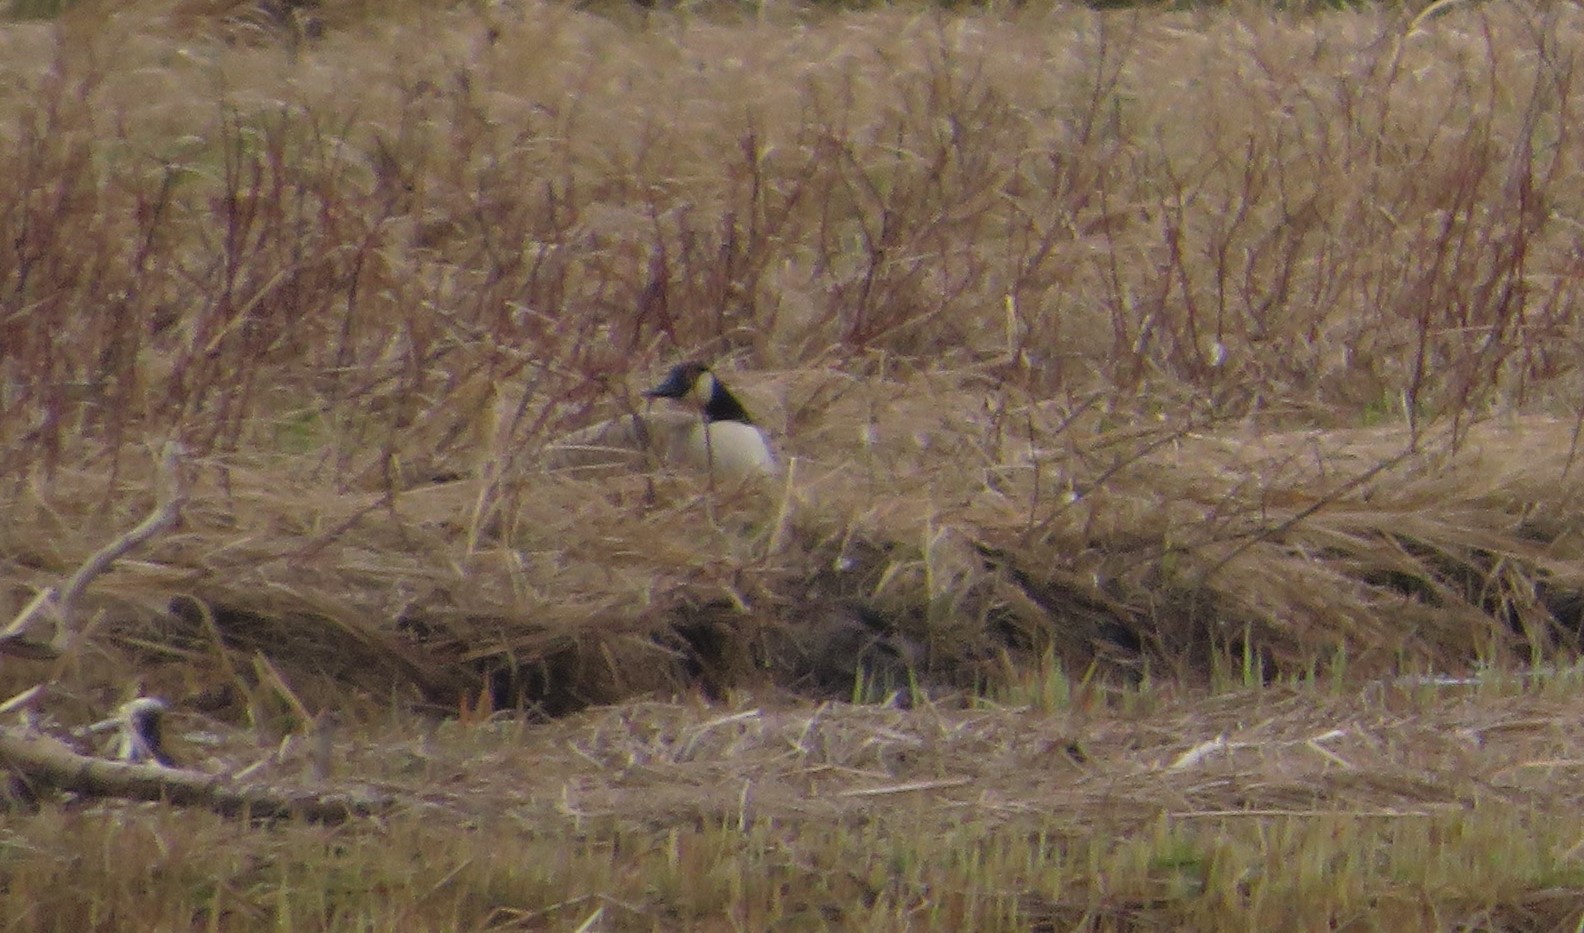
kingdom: Animalia
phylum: Chordata
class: Aves
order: Anseriformes
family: Anatidae
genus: Branta
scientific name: Branta canadensis
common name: Canada goose
